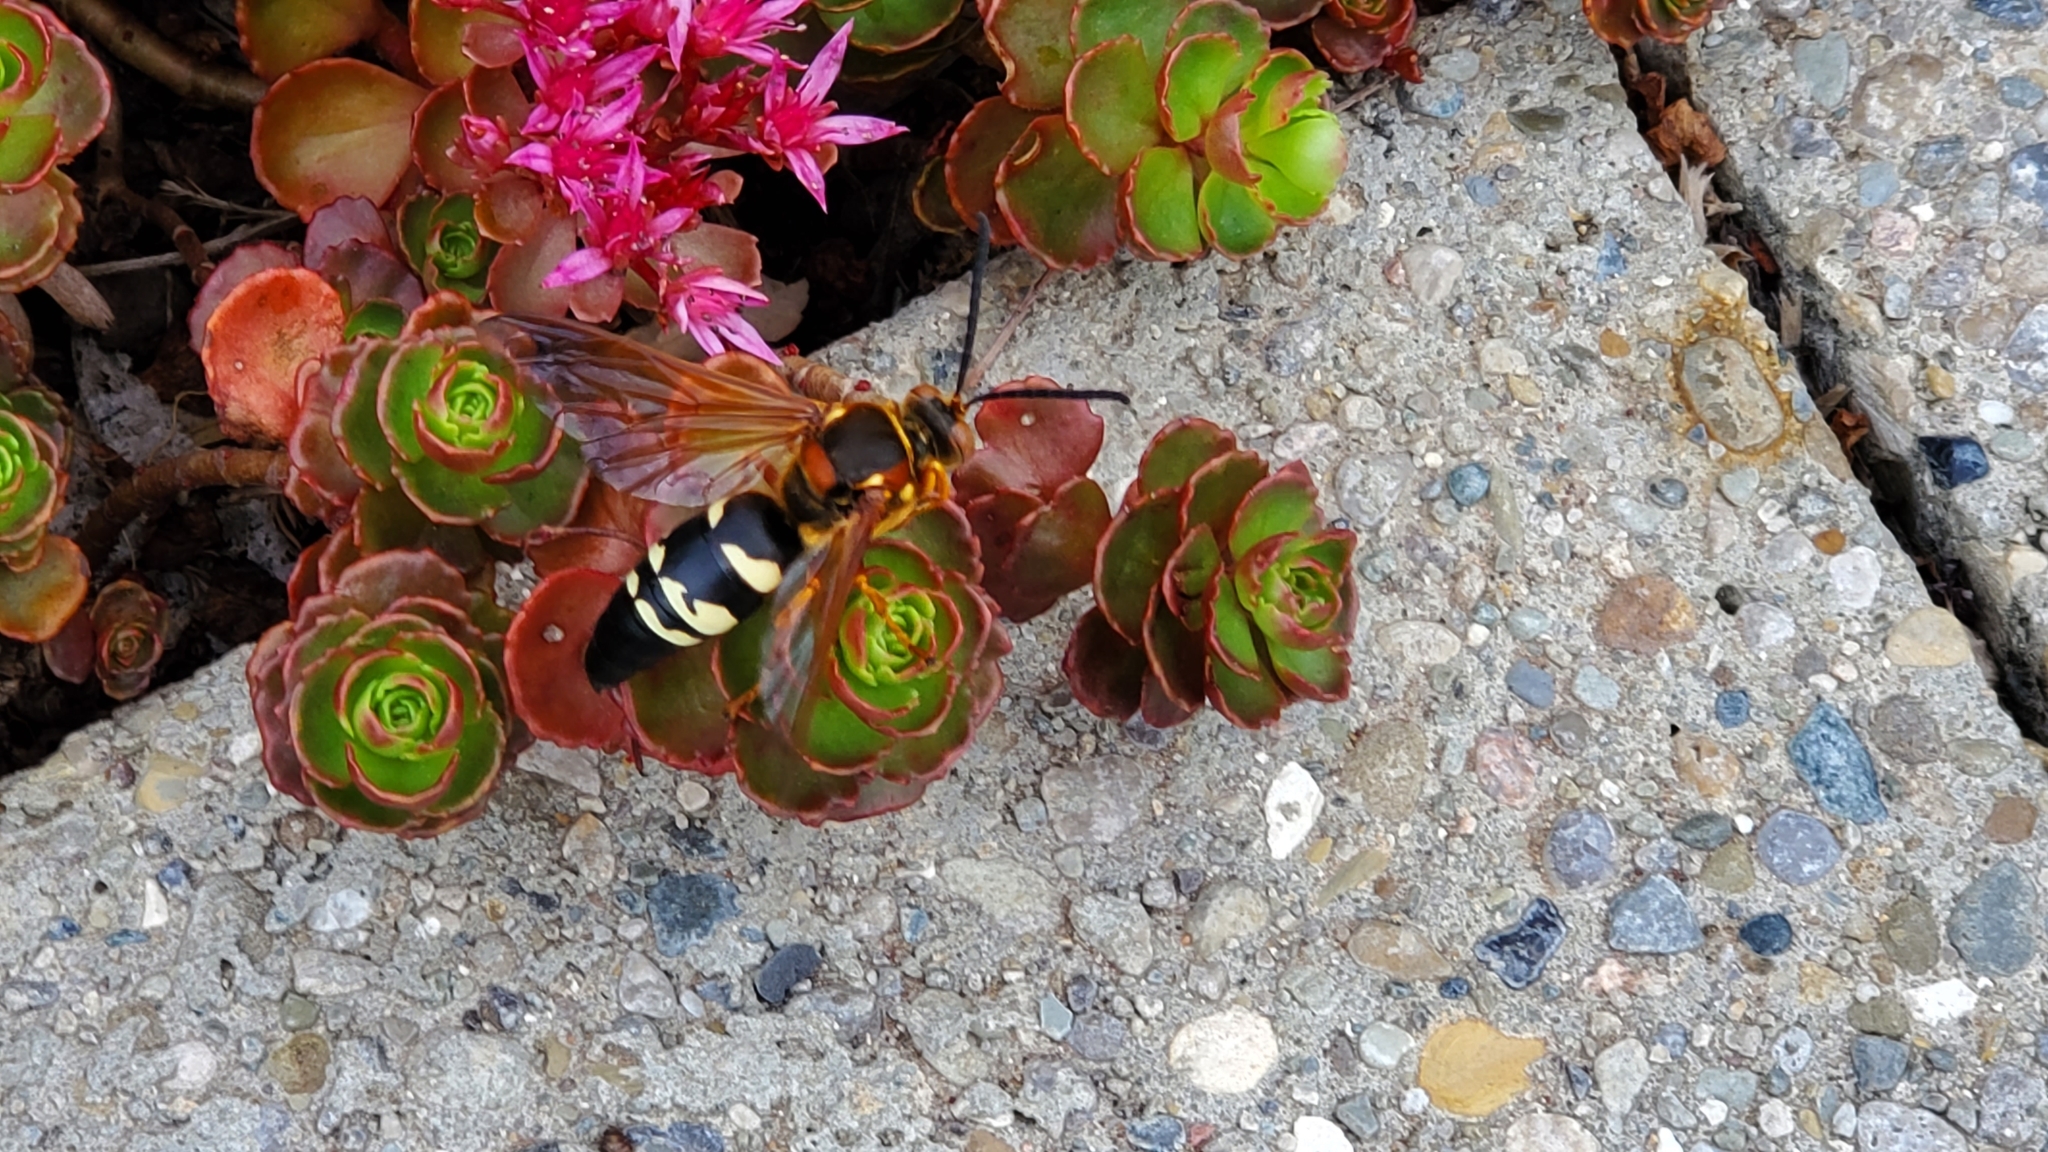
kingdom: Animalia
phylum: Arthropoda
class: Insecta
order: Hymenoptera
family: Crabronidae
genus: Sphecius
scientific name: Sphecius speciosus
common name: Cicada killer
